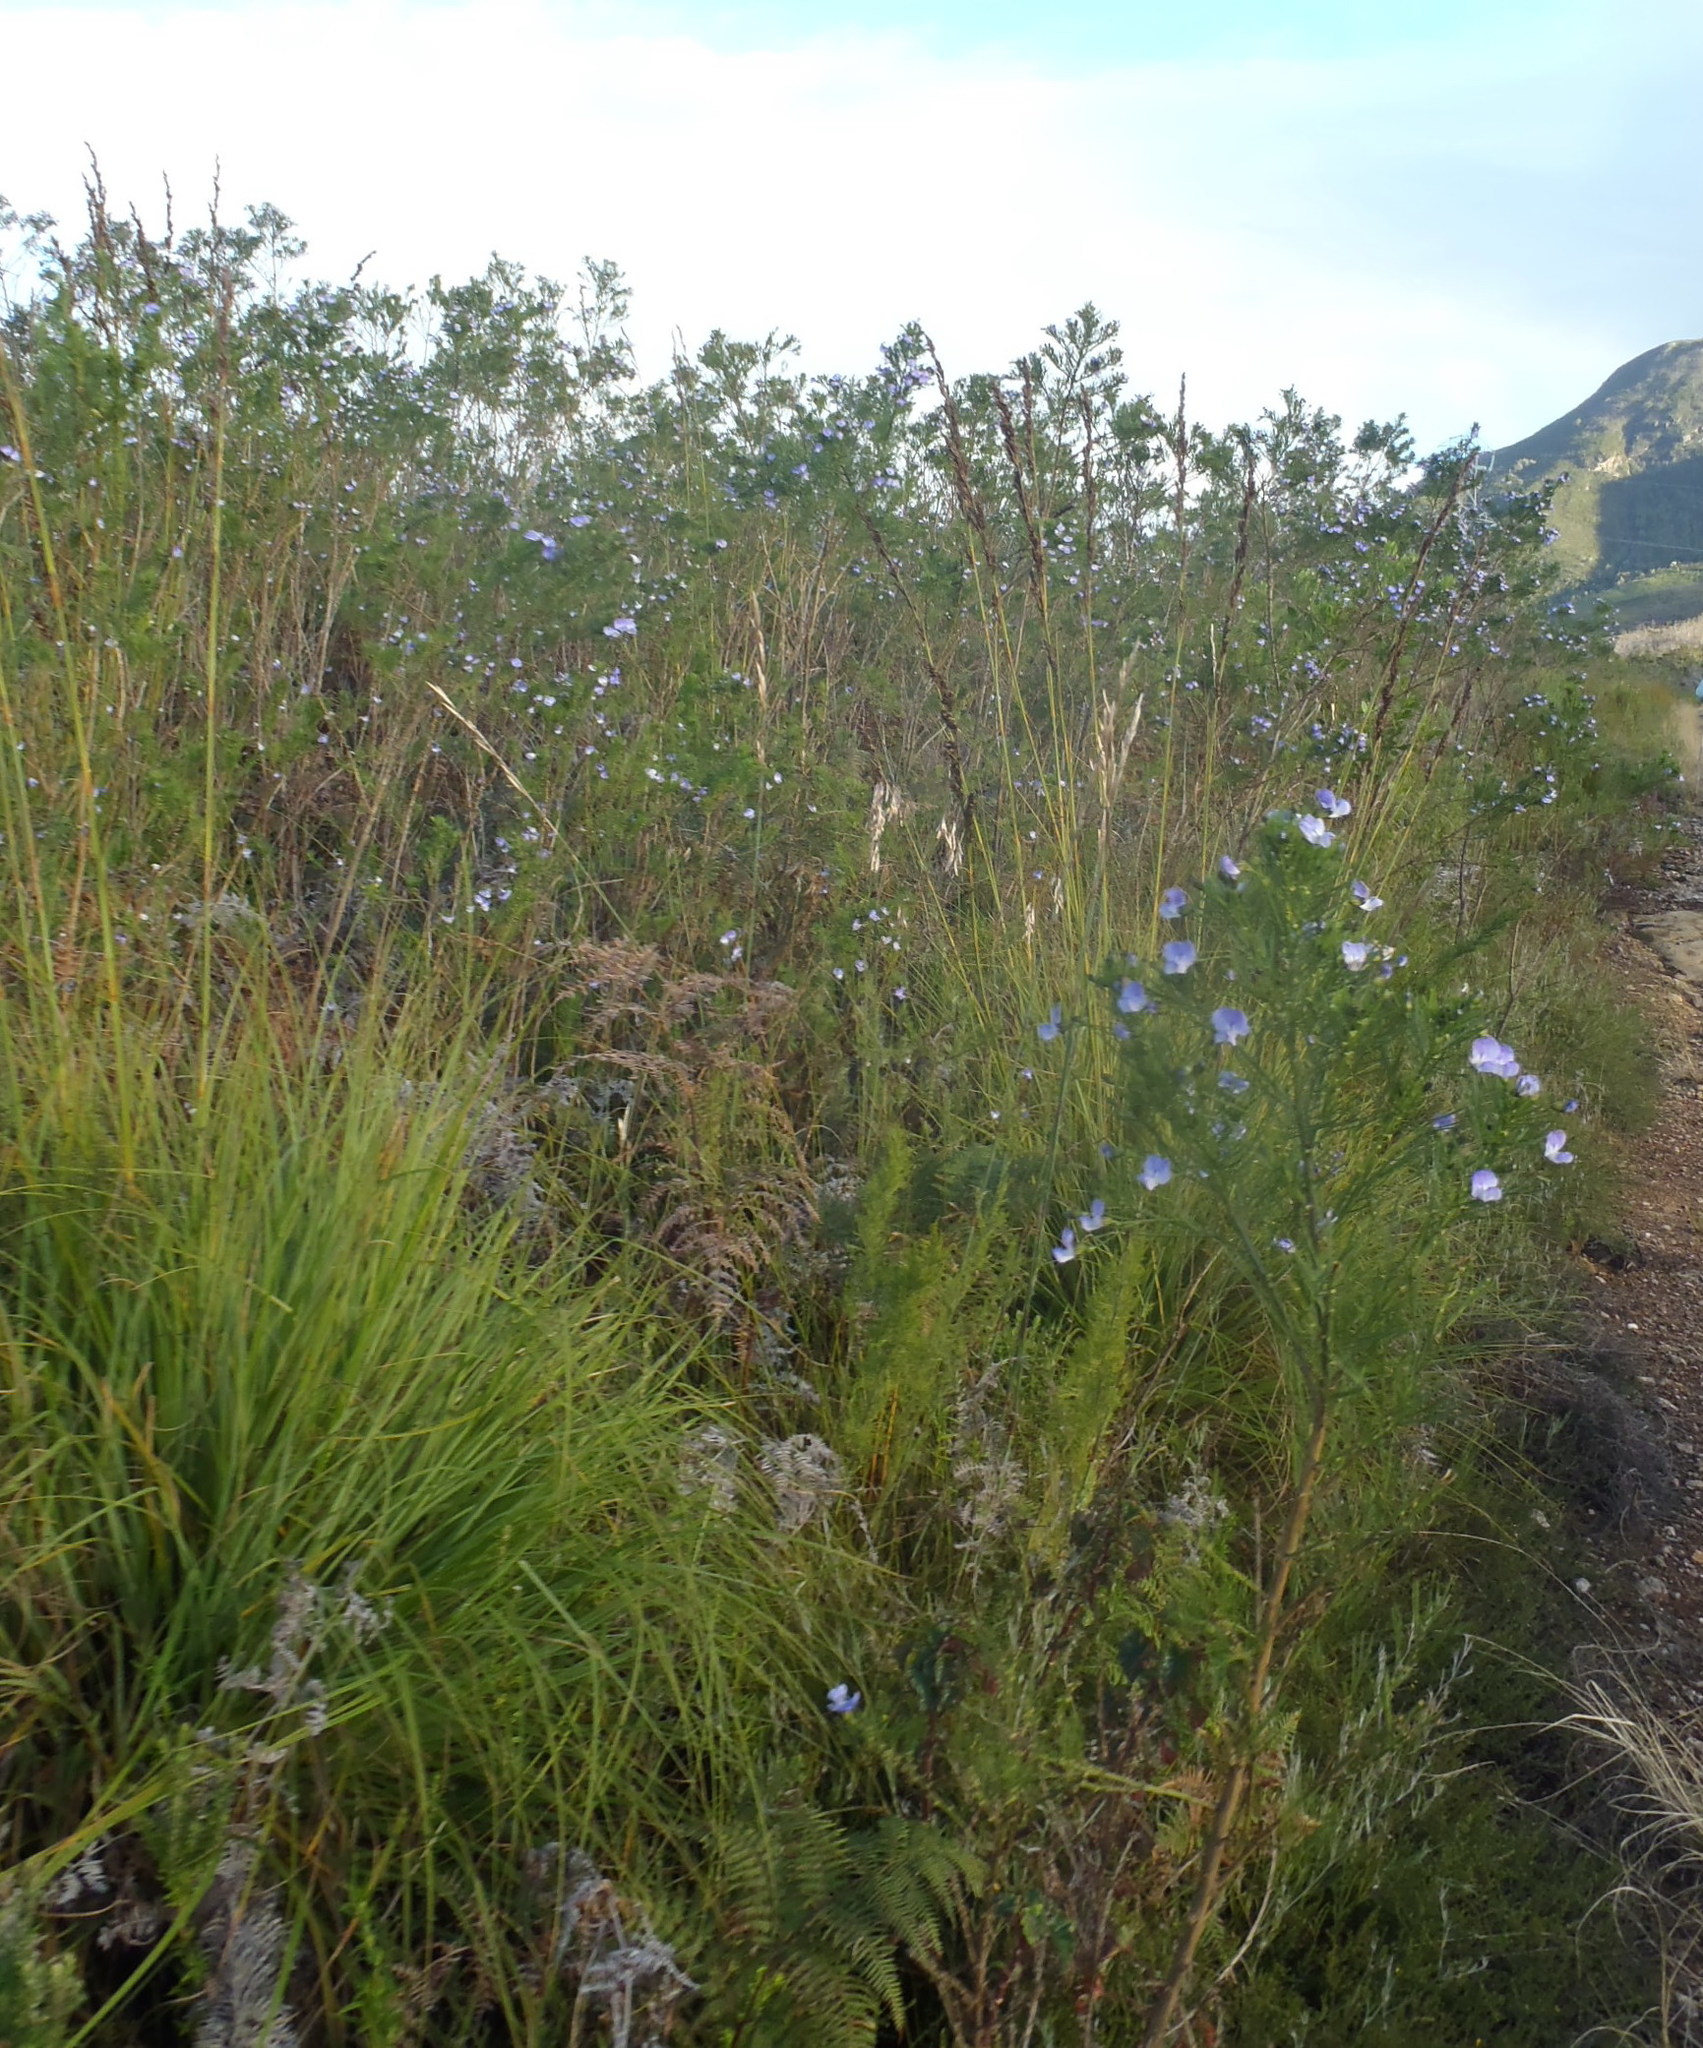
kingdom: Plantae
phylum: Tracheophyta
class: Magnoliopsida
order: Fabales
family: Fabaceae
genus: Psoralea
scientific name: Psoralea arborea
